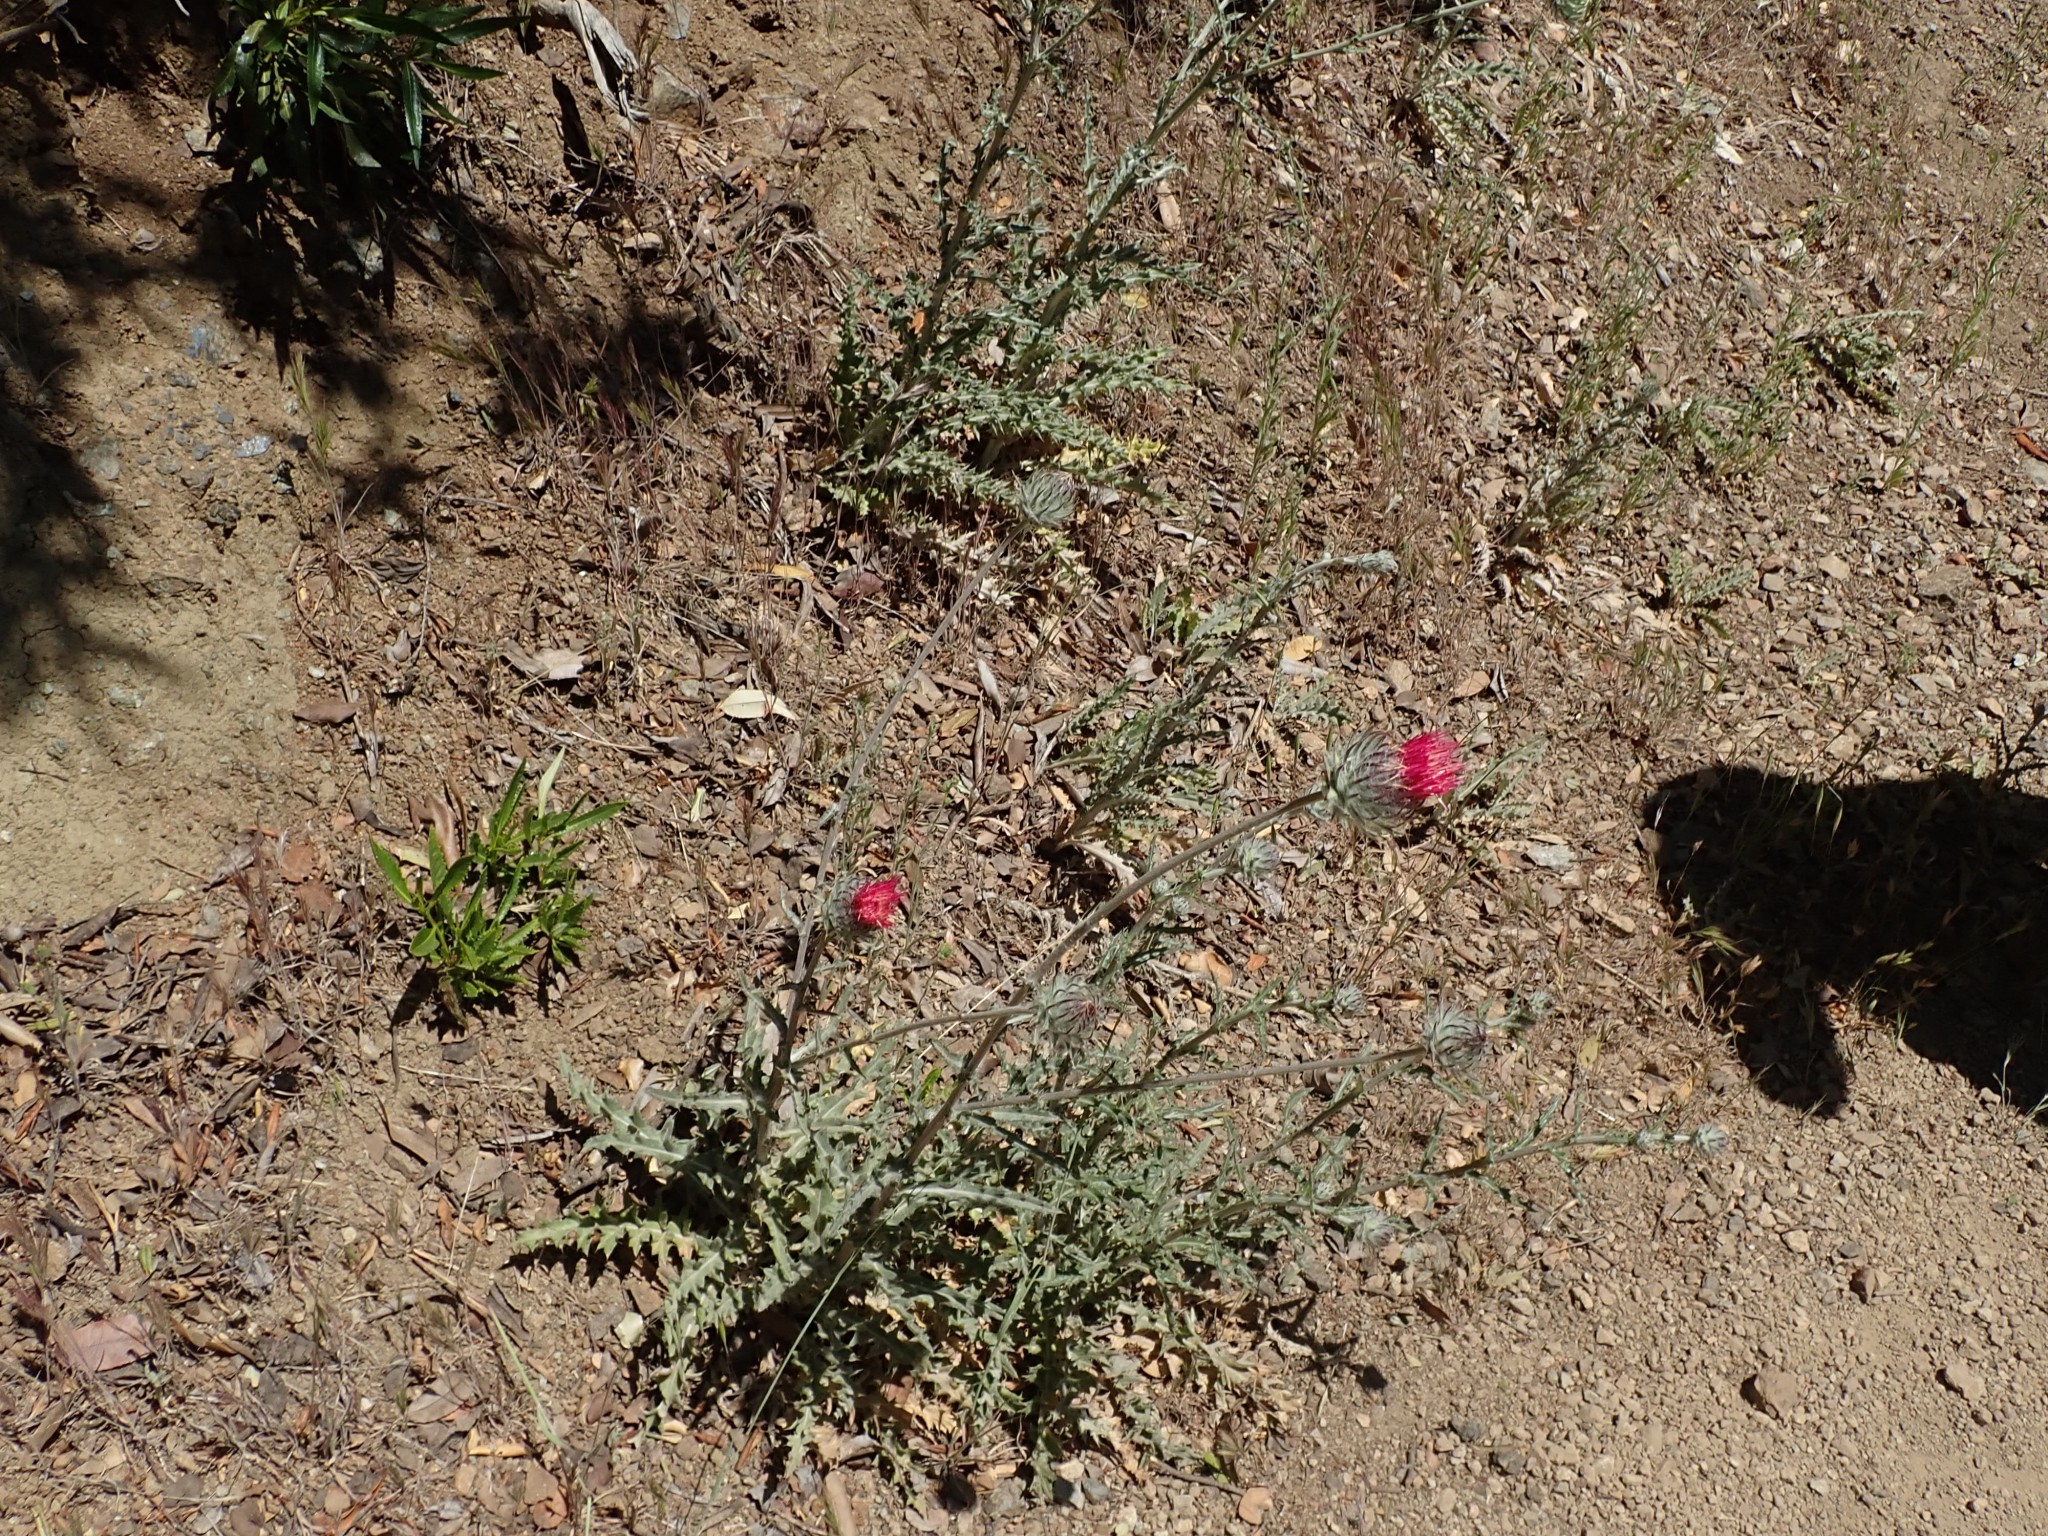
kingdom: Plantae
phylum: Tracheophyta
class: Magnoliopsida
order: Asterales
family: Asteraceae
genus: Cirsium
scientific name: Cirsium occidentale
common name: Western thistle
